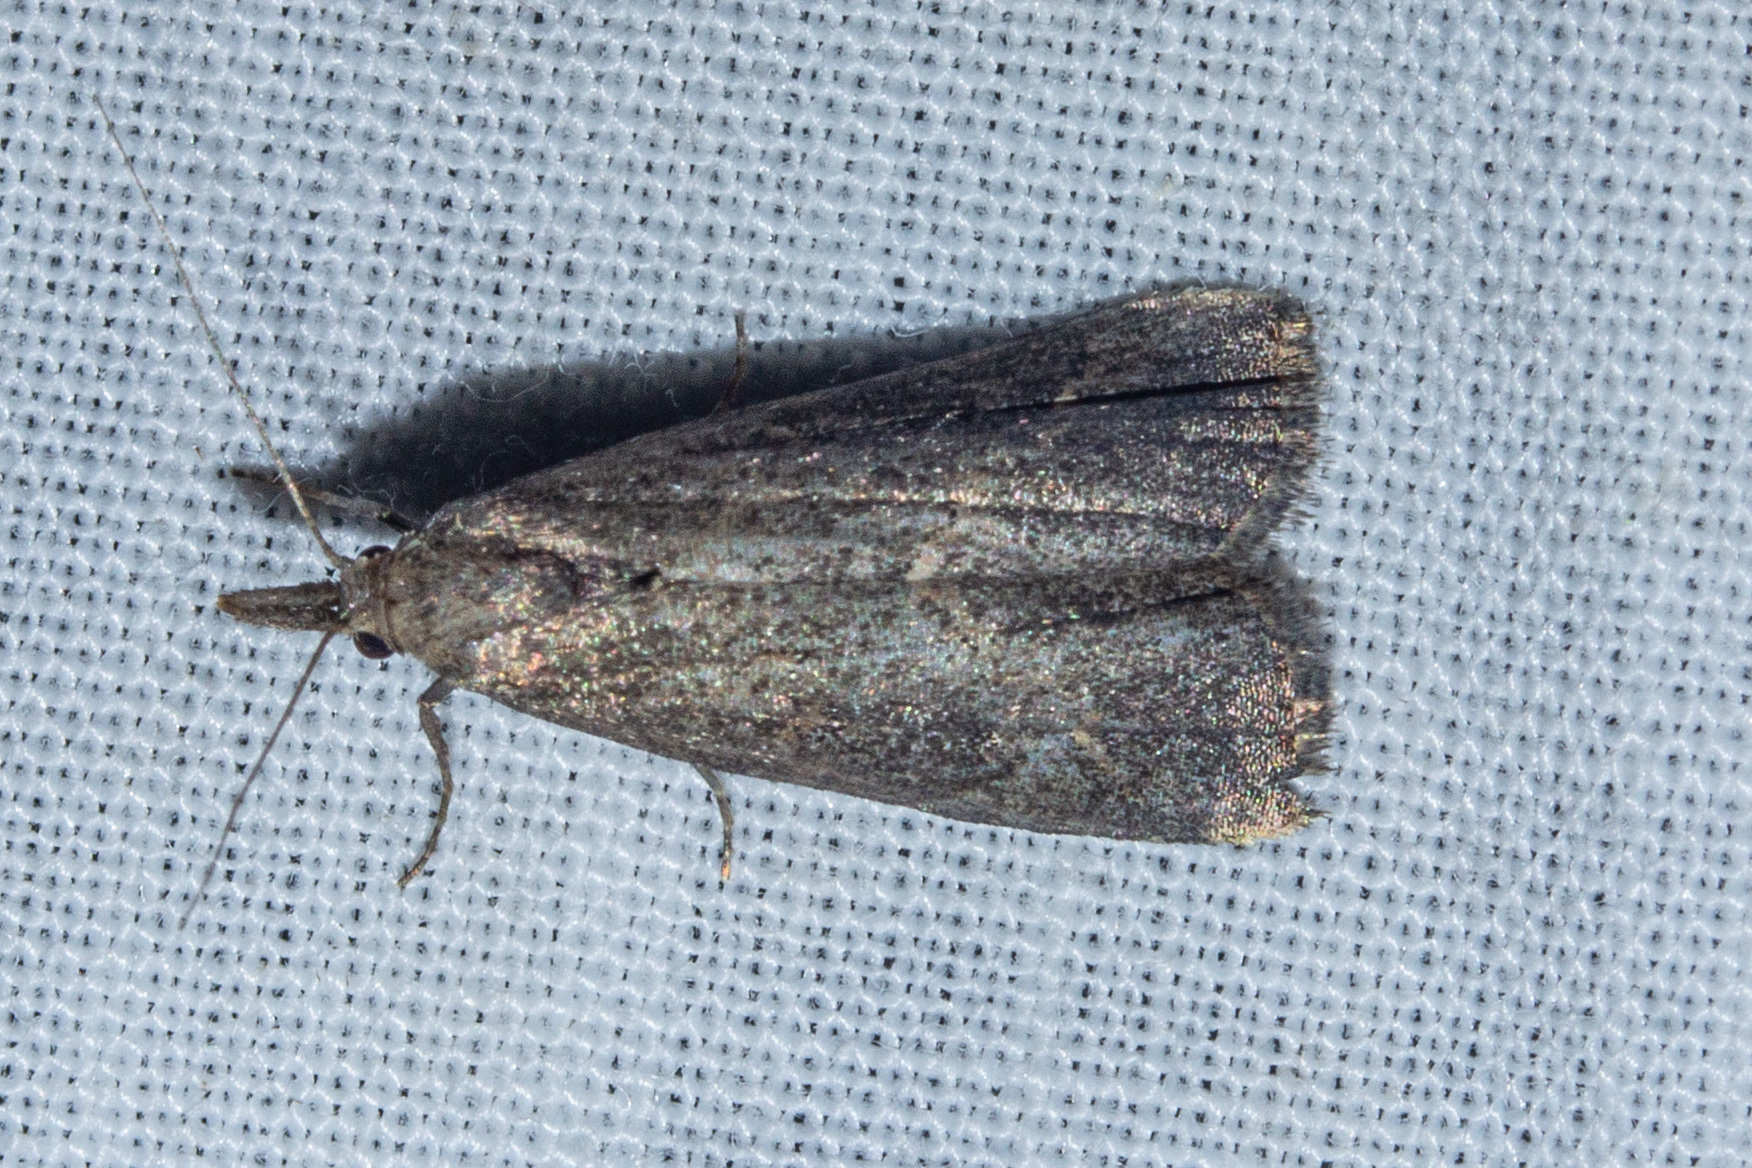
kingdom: Animalia
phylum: Arthropoda
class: Insecta
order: Lepidoptera
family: Erebidae
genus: Schrankia
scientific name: Schrankia costaestrigalis
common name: Pinion-streaked snout
